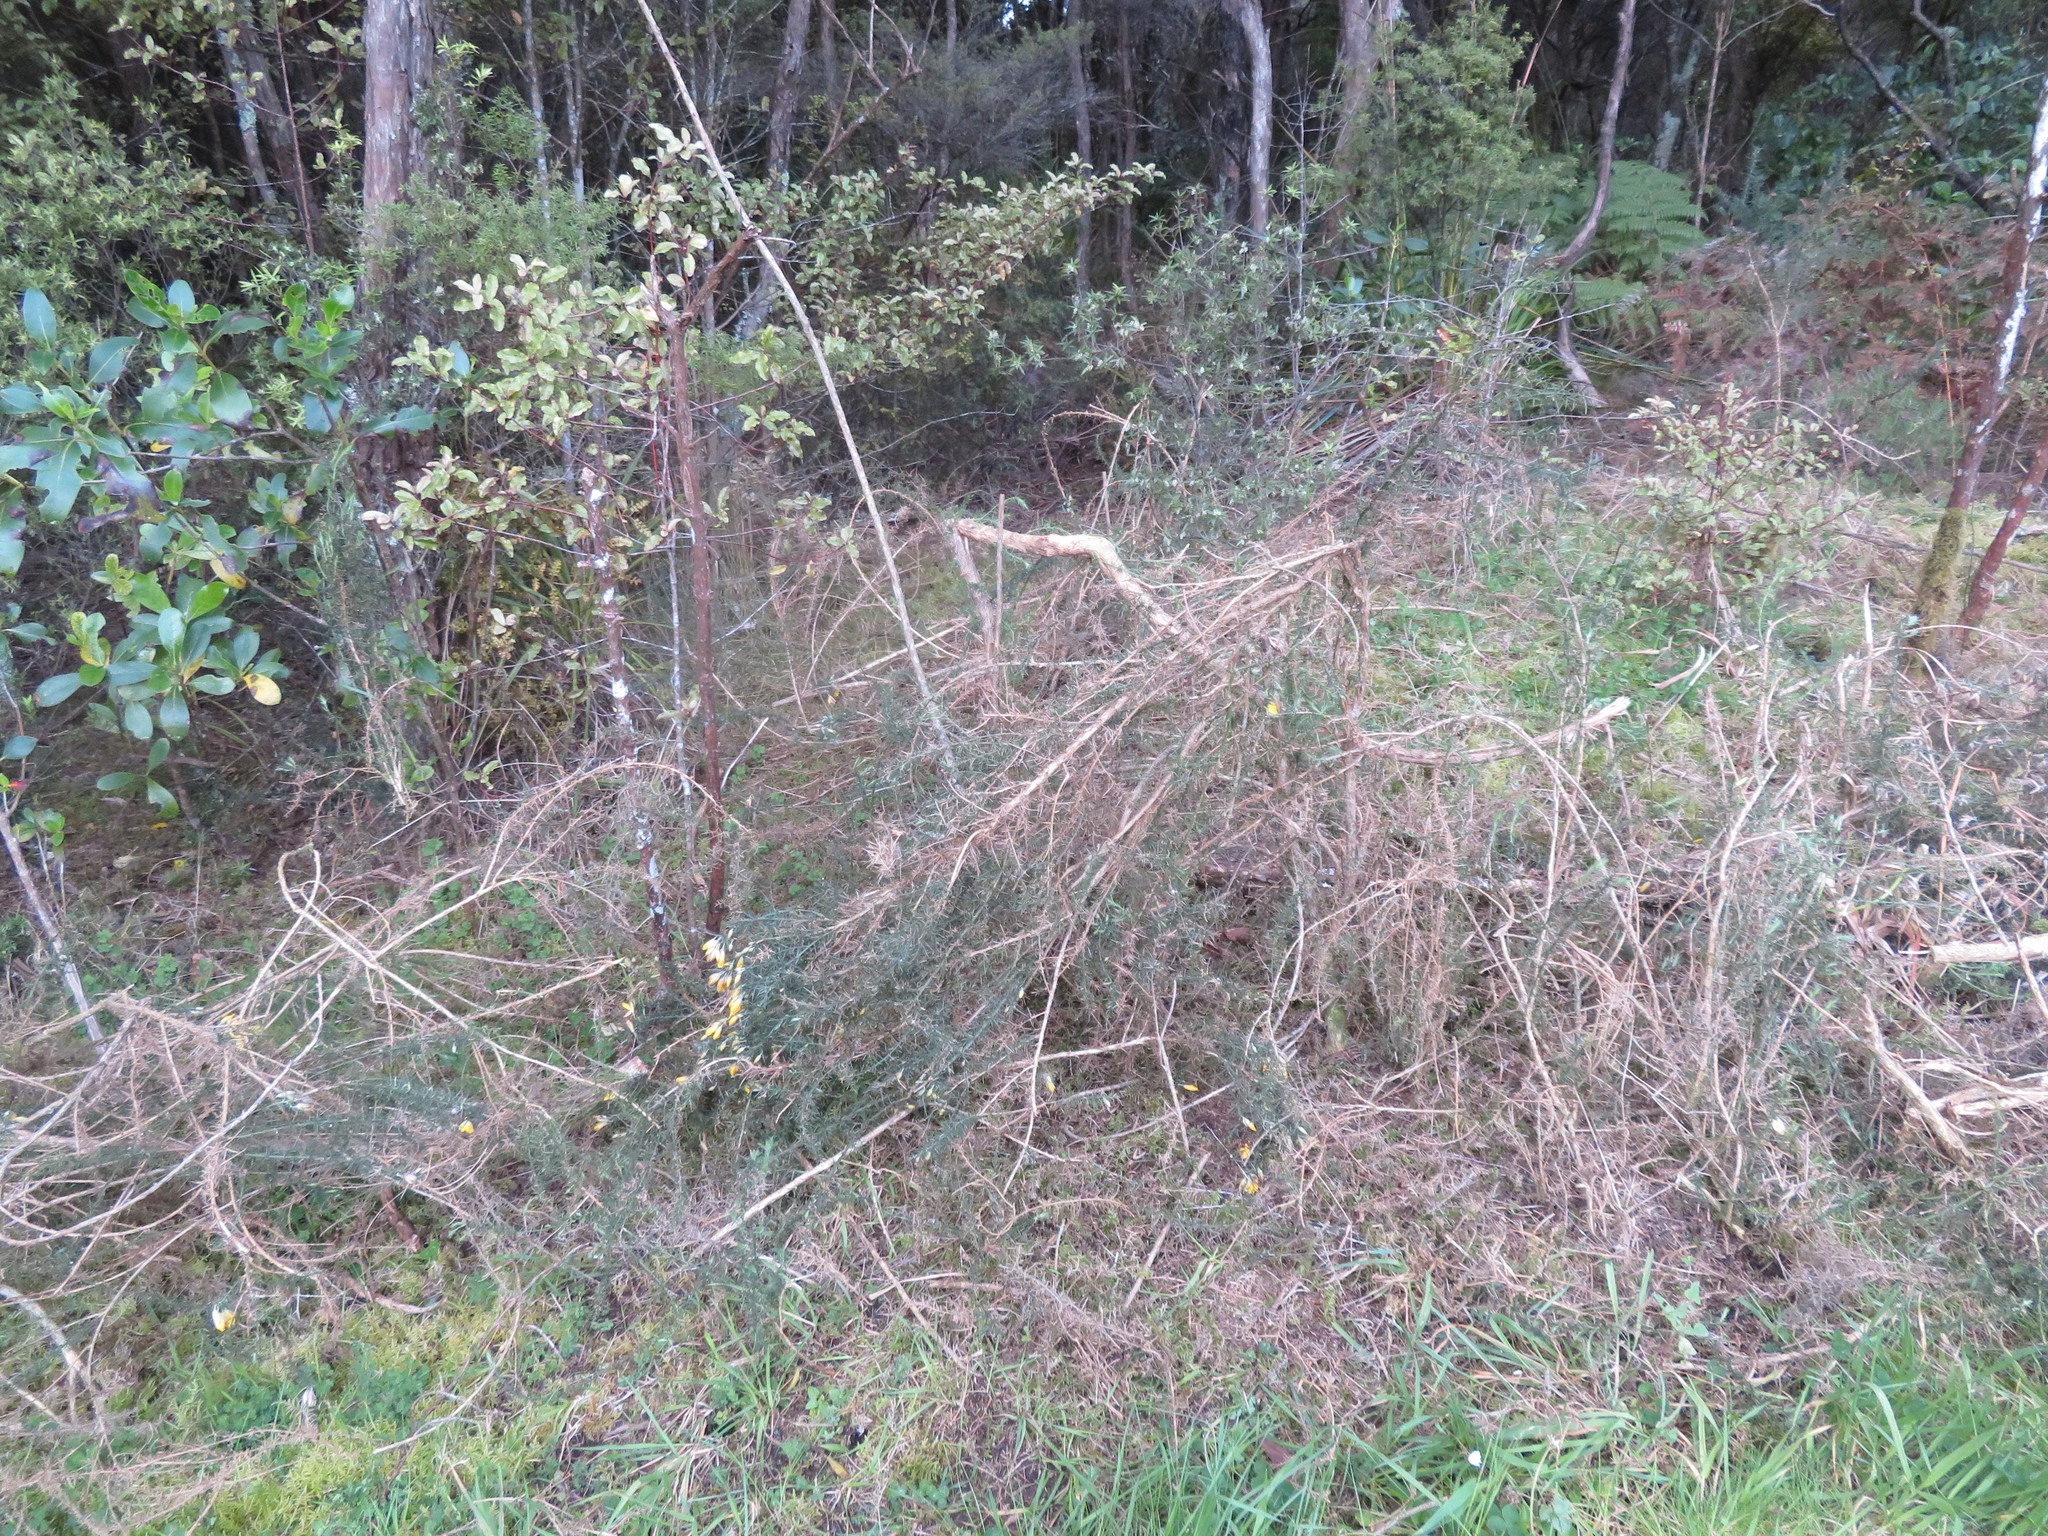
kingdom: Plantae
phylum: Tracheophyta
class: Magnoliopsida
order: Ericales
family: Primulaceae
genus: Myrsine
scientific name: Myrsine australis
